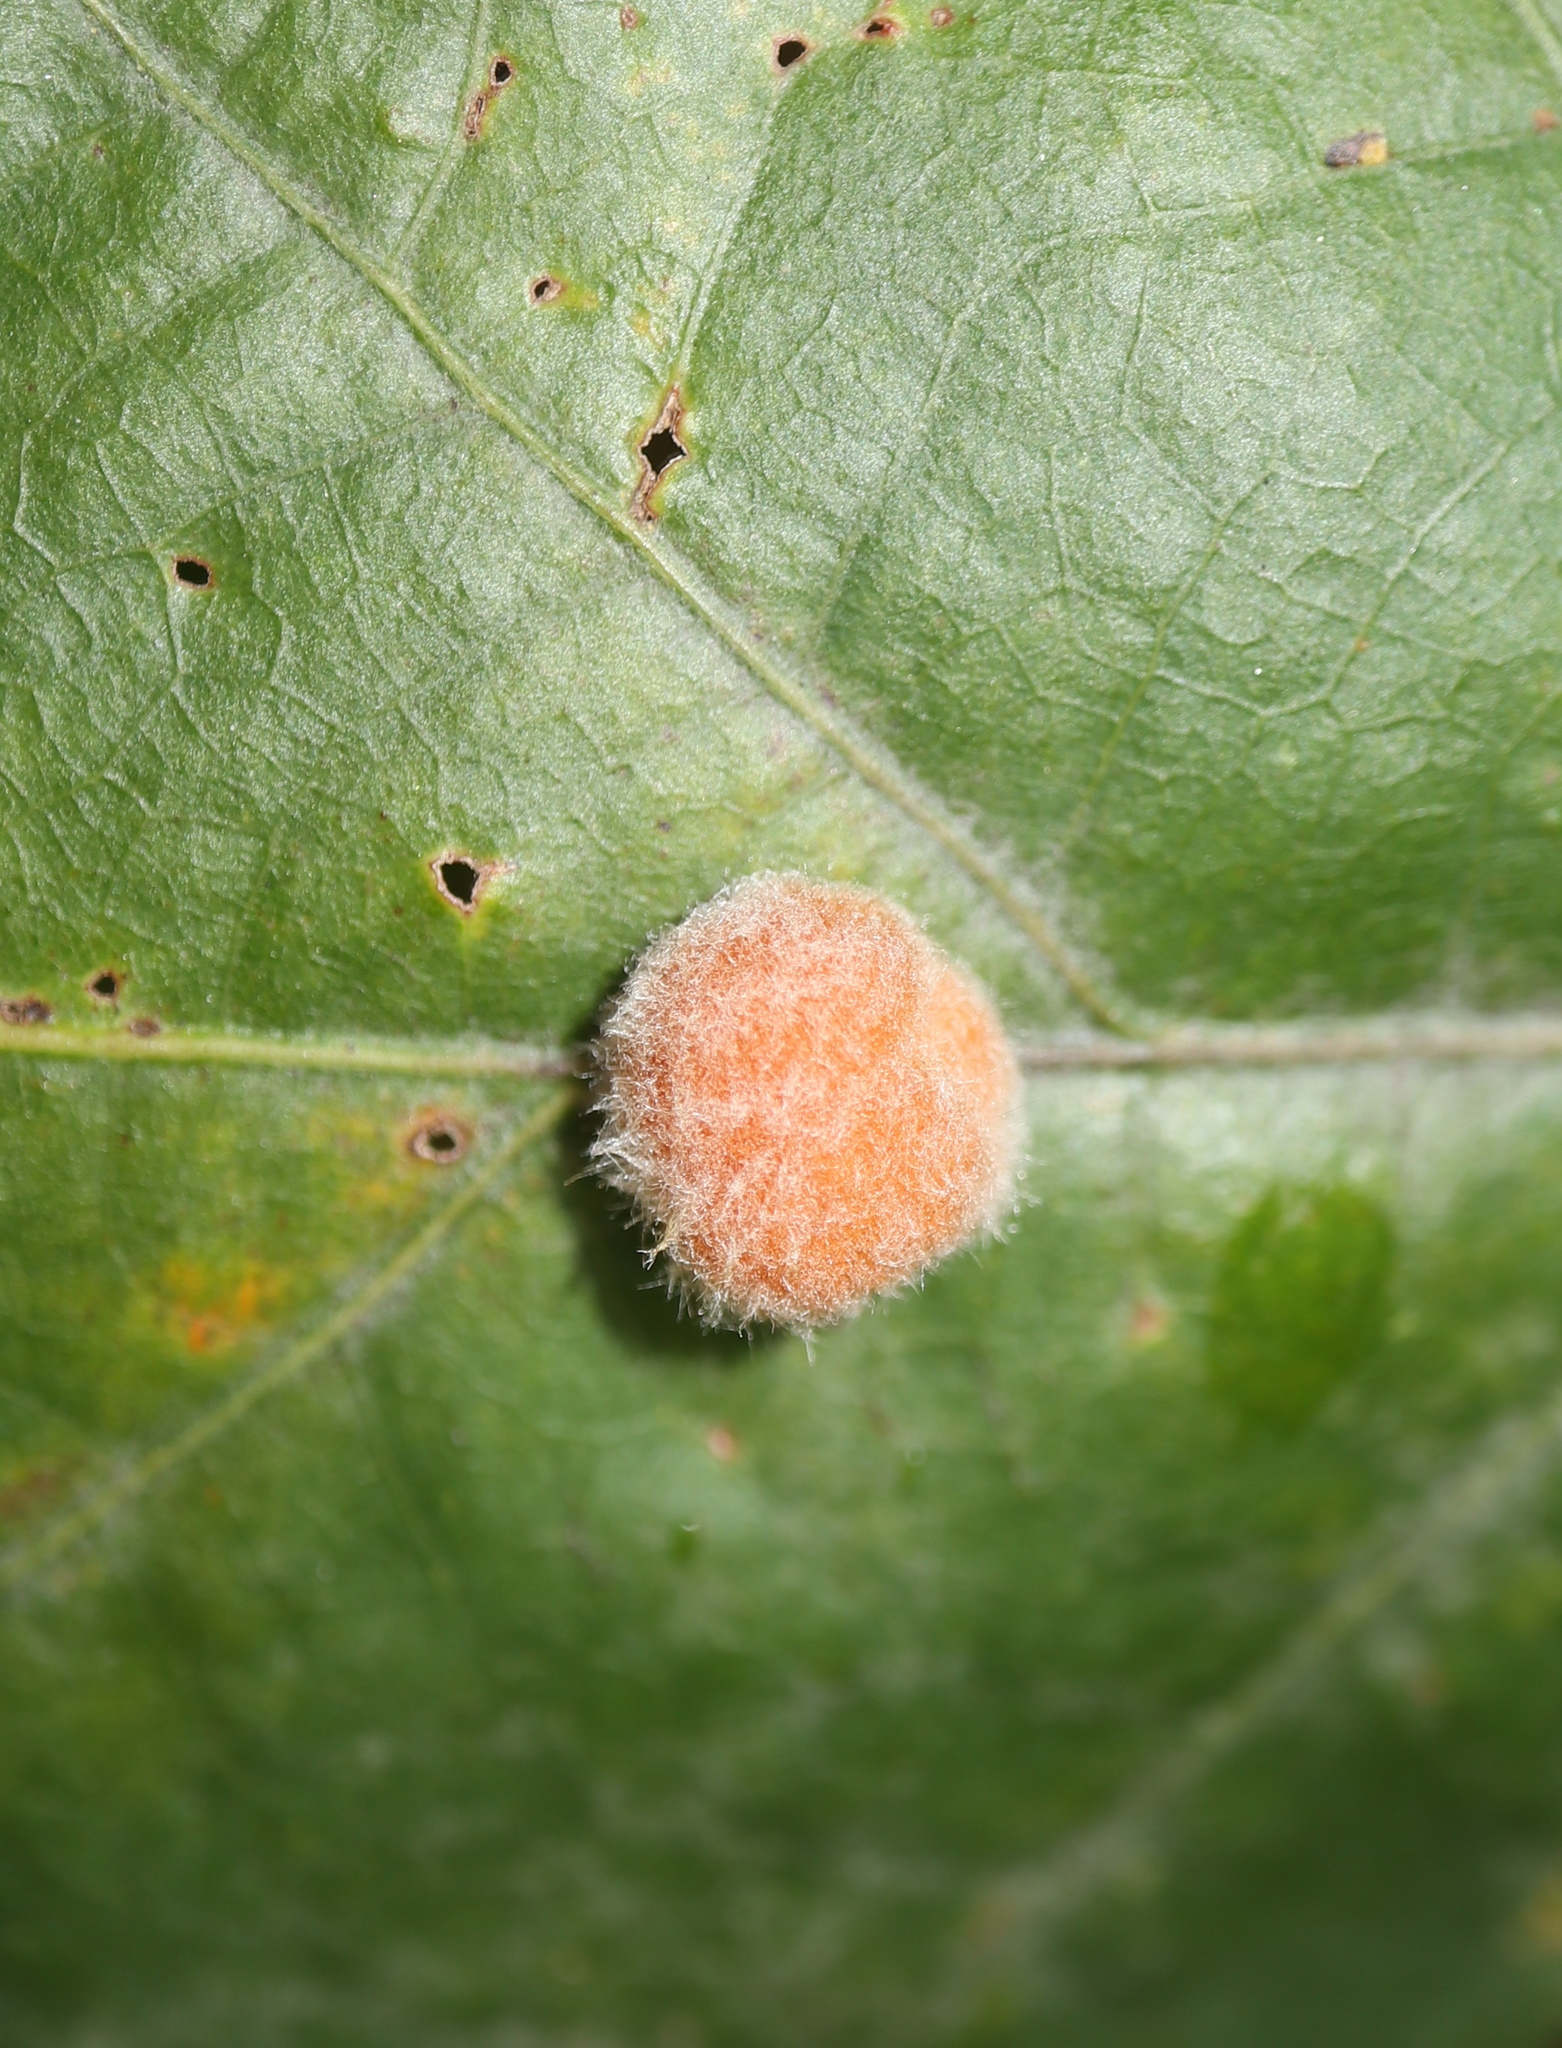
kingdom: Animalia
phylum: Arthropoda
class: Insecta
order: Hymenoptera
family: Cynipidae
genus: Andricus
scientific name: Andricus quercusflocci
